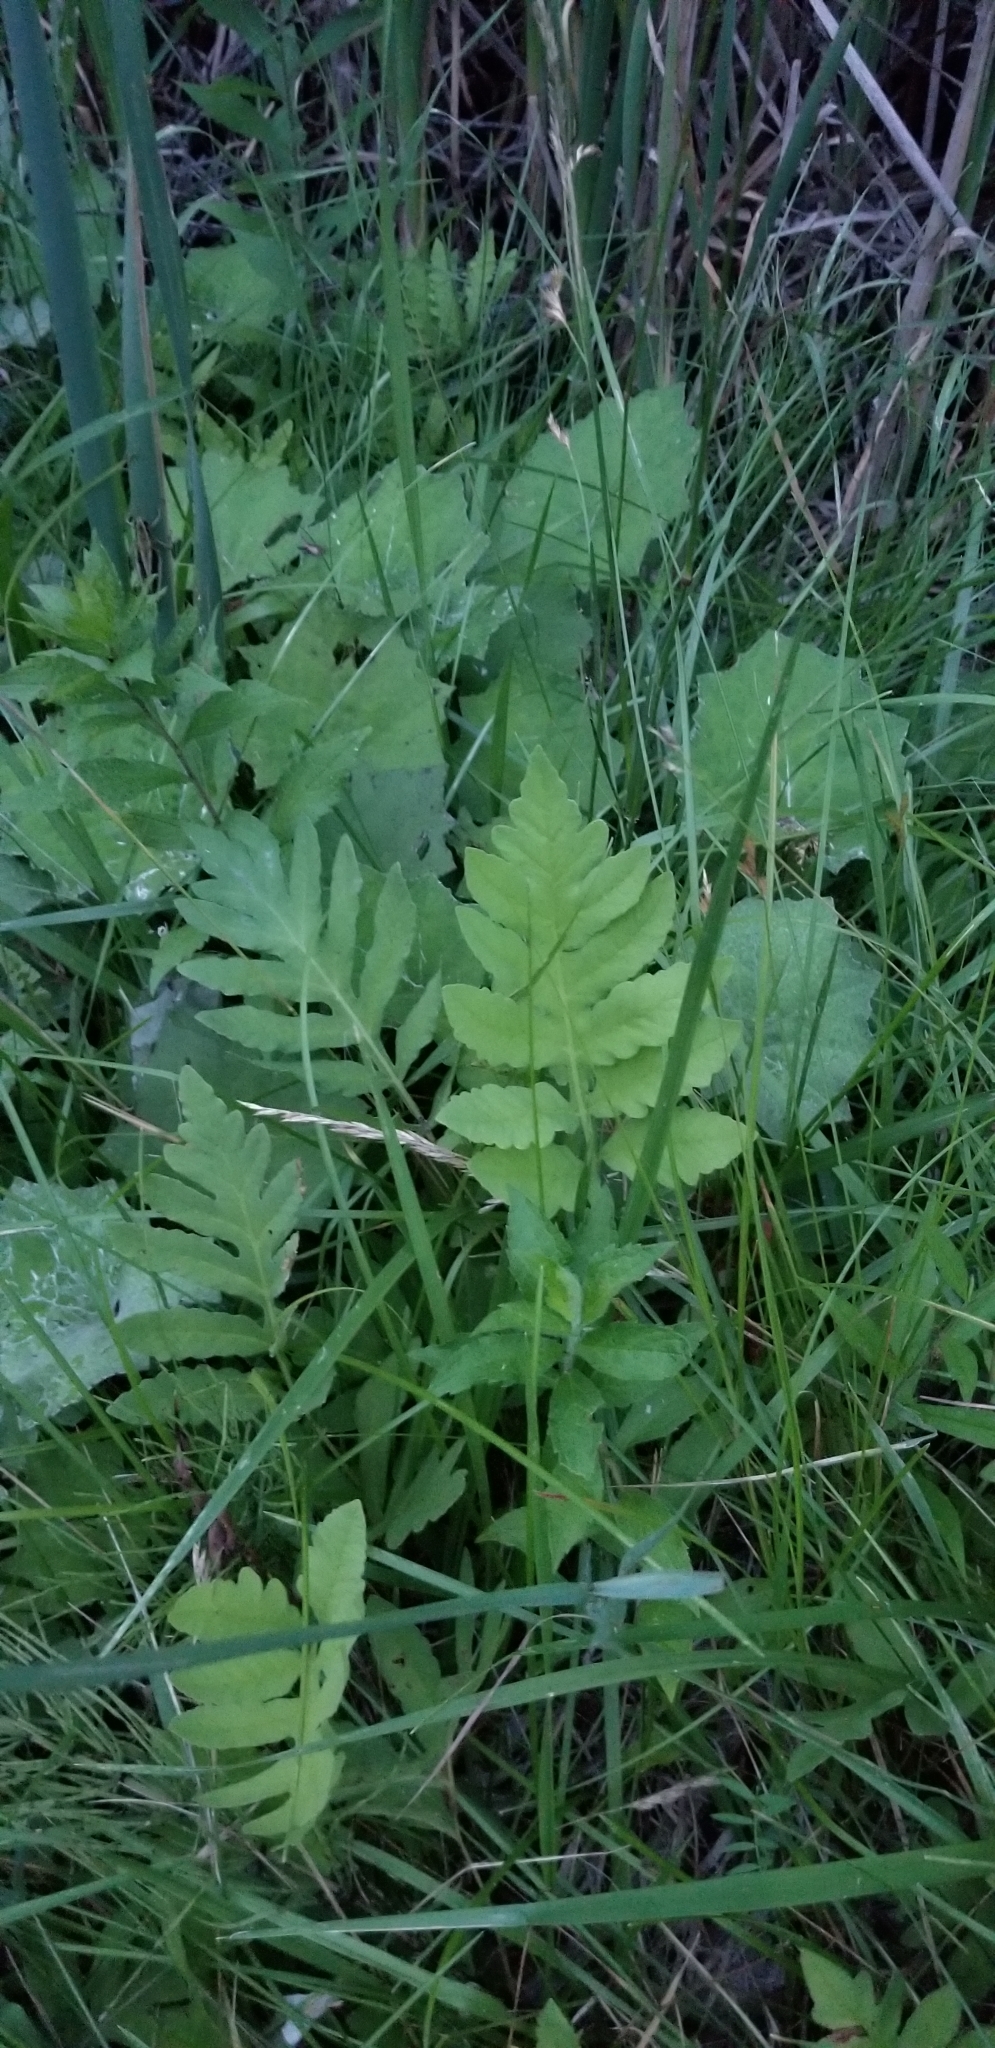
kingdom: Plantae
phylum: Tracheophyta
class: Polypodiopsida
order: Polypodiales
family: Onocleaceae
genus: Onoclea
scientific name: Onoclea sensibilis
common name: Sensitive fern
